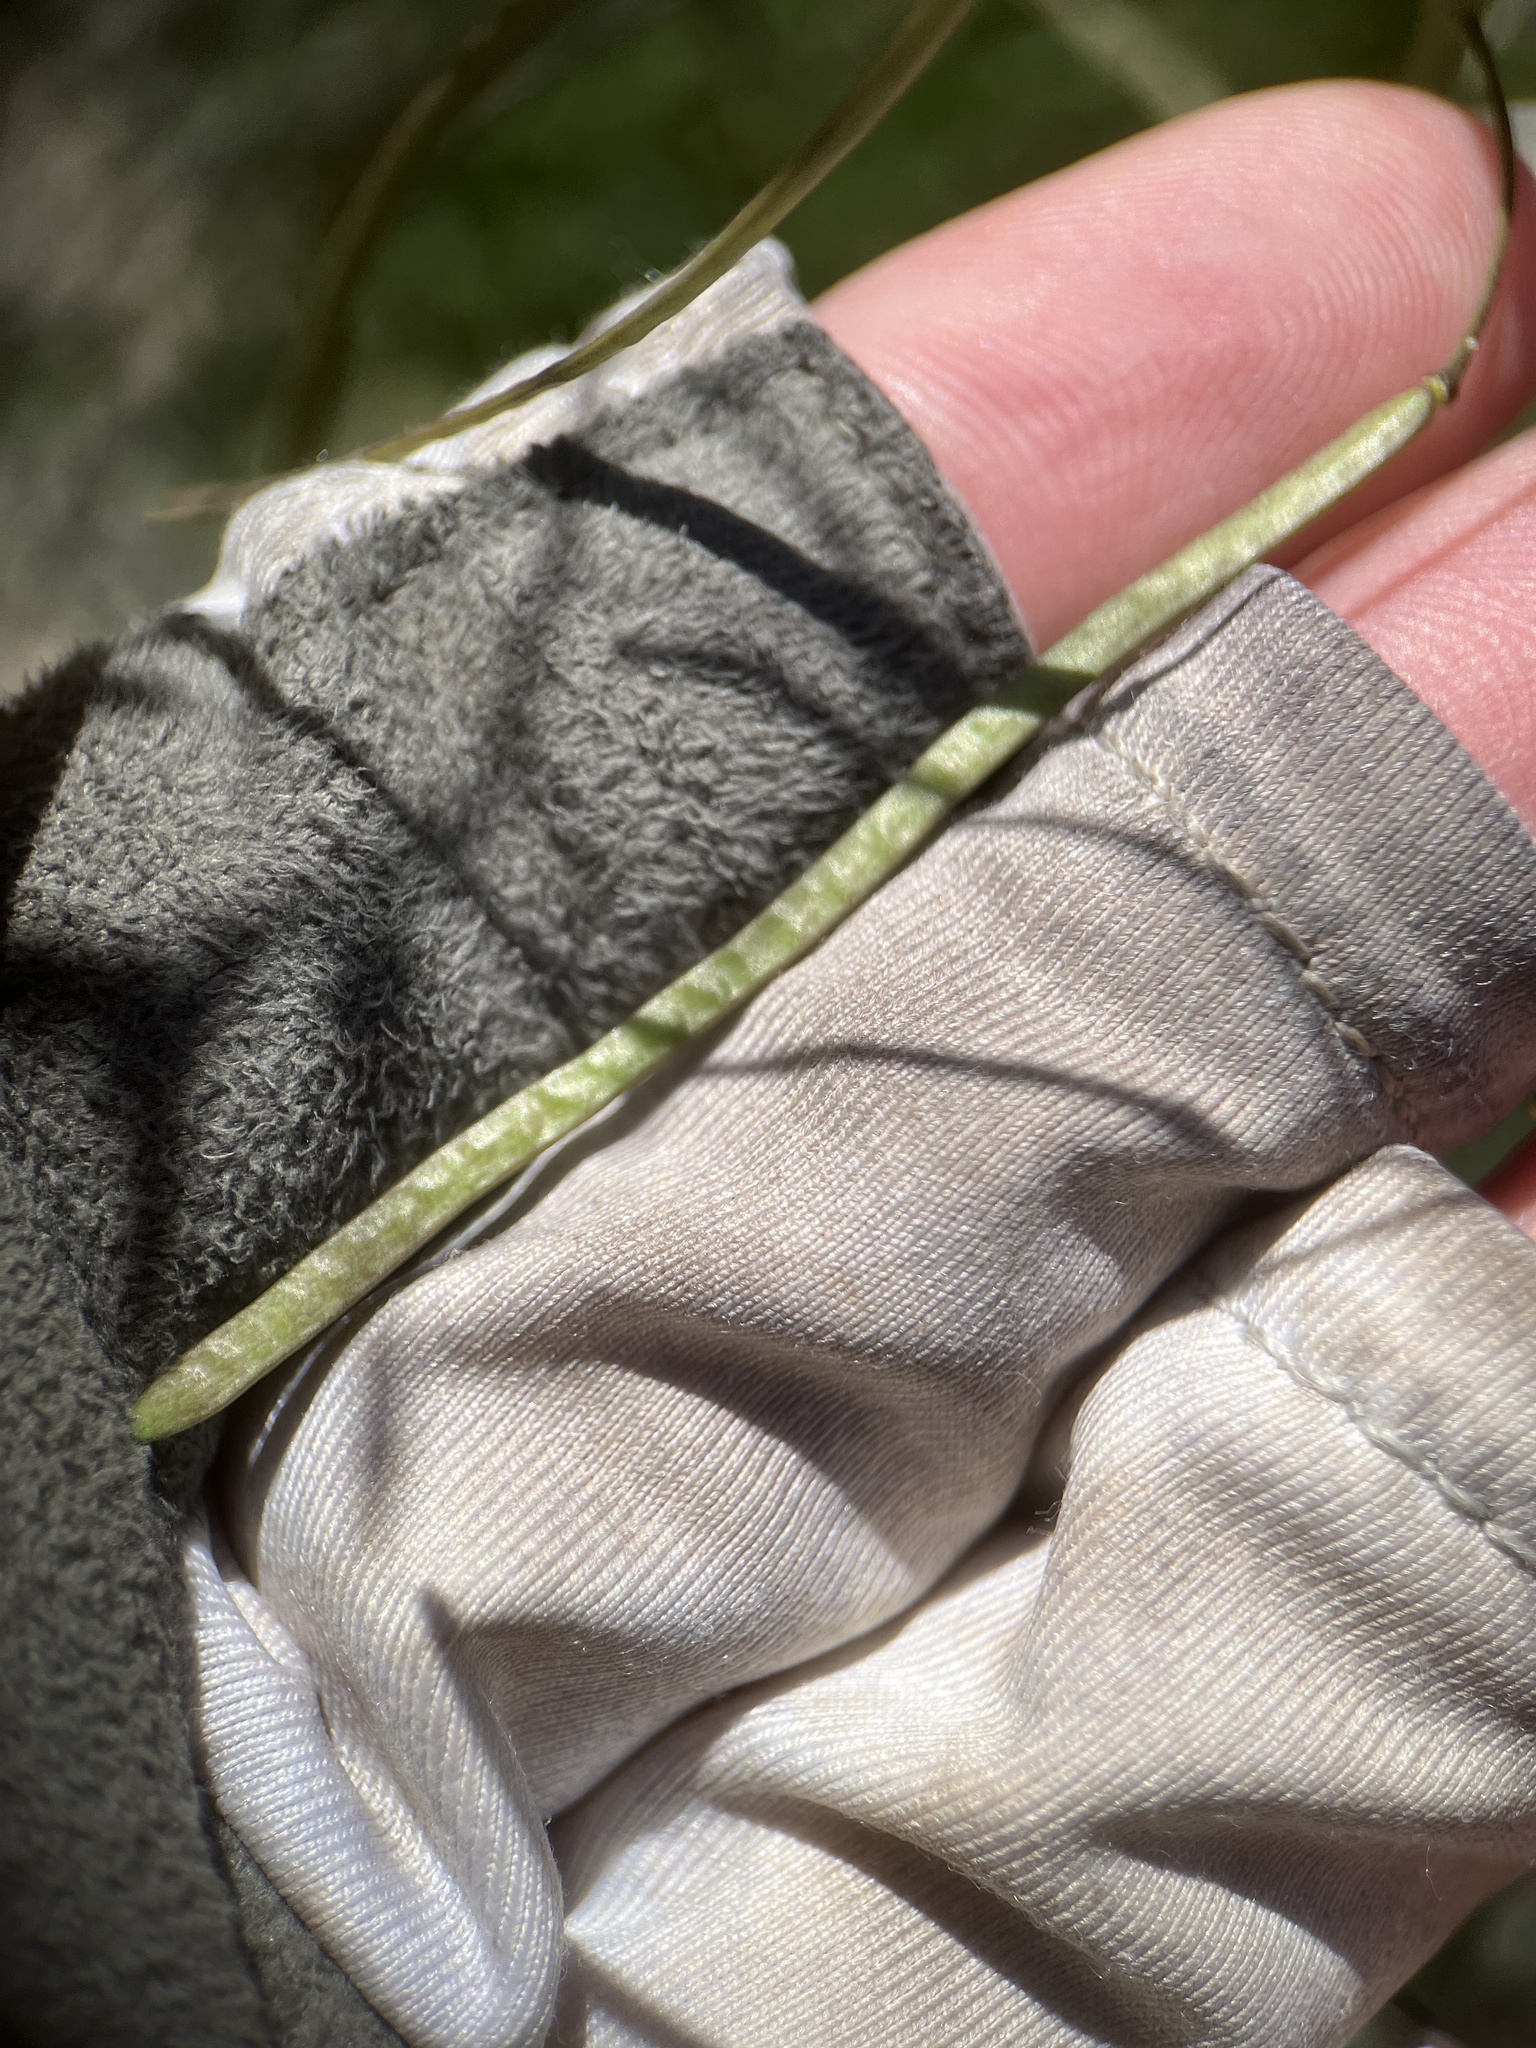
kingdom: Plantae
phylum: Tracheophyta
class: Magnoliopsida
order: Brassicales
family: Brassicaceae
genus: Boechera
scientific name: Boechera perennans
